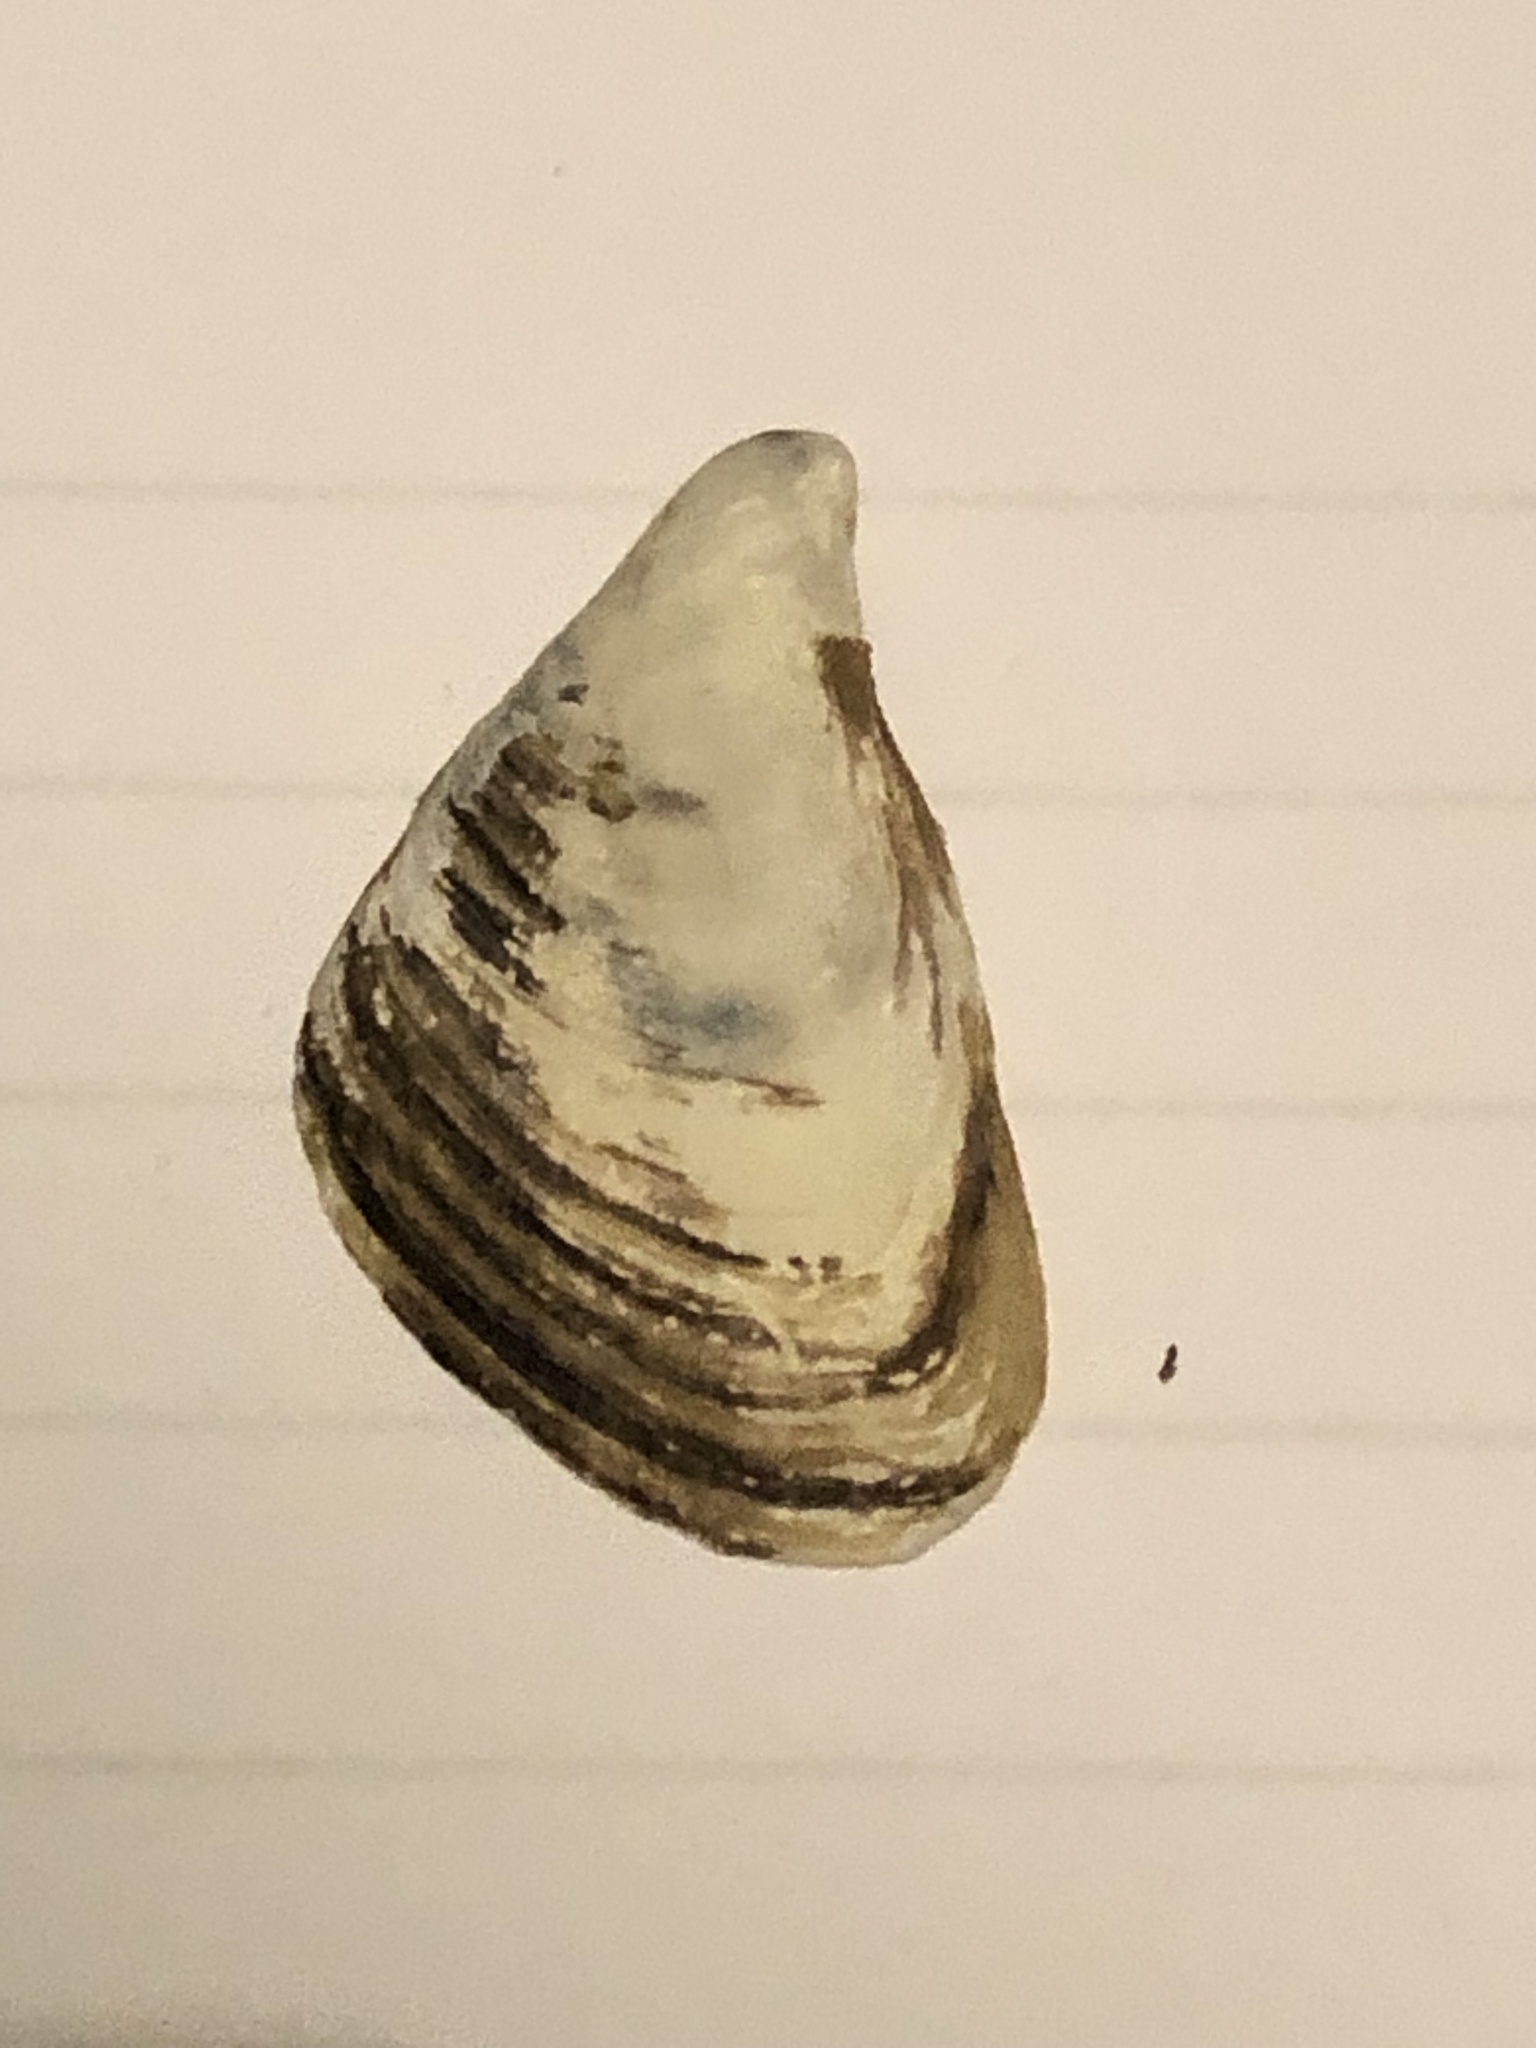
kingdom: Animalia
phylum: Mollusca
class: Bivalvia
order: Myida
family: Dreissenidae
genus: Dreissena
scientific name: Dreissena bugensis
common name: Quagga mussel
